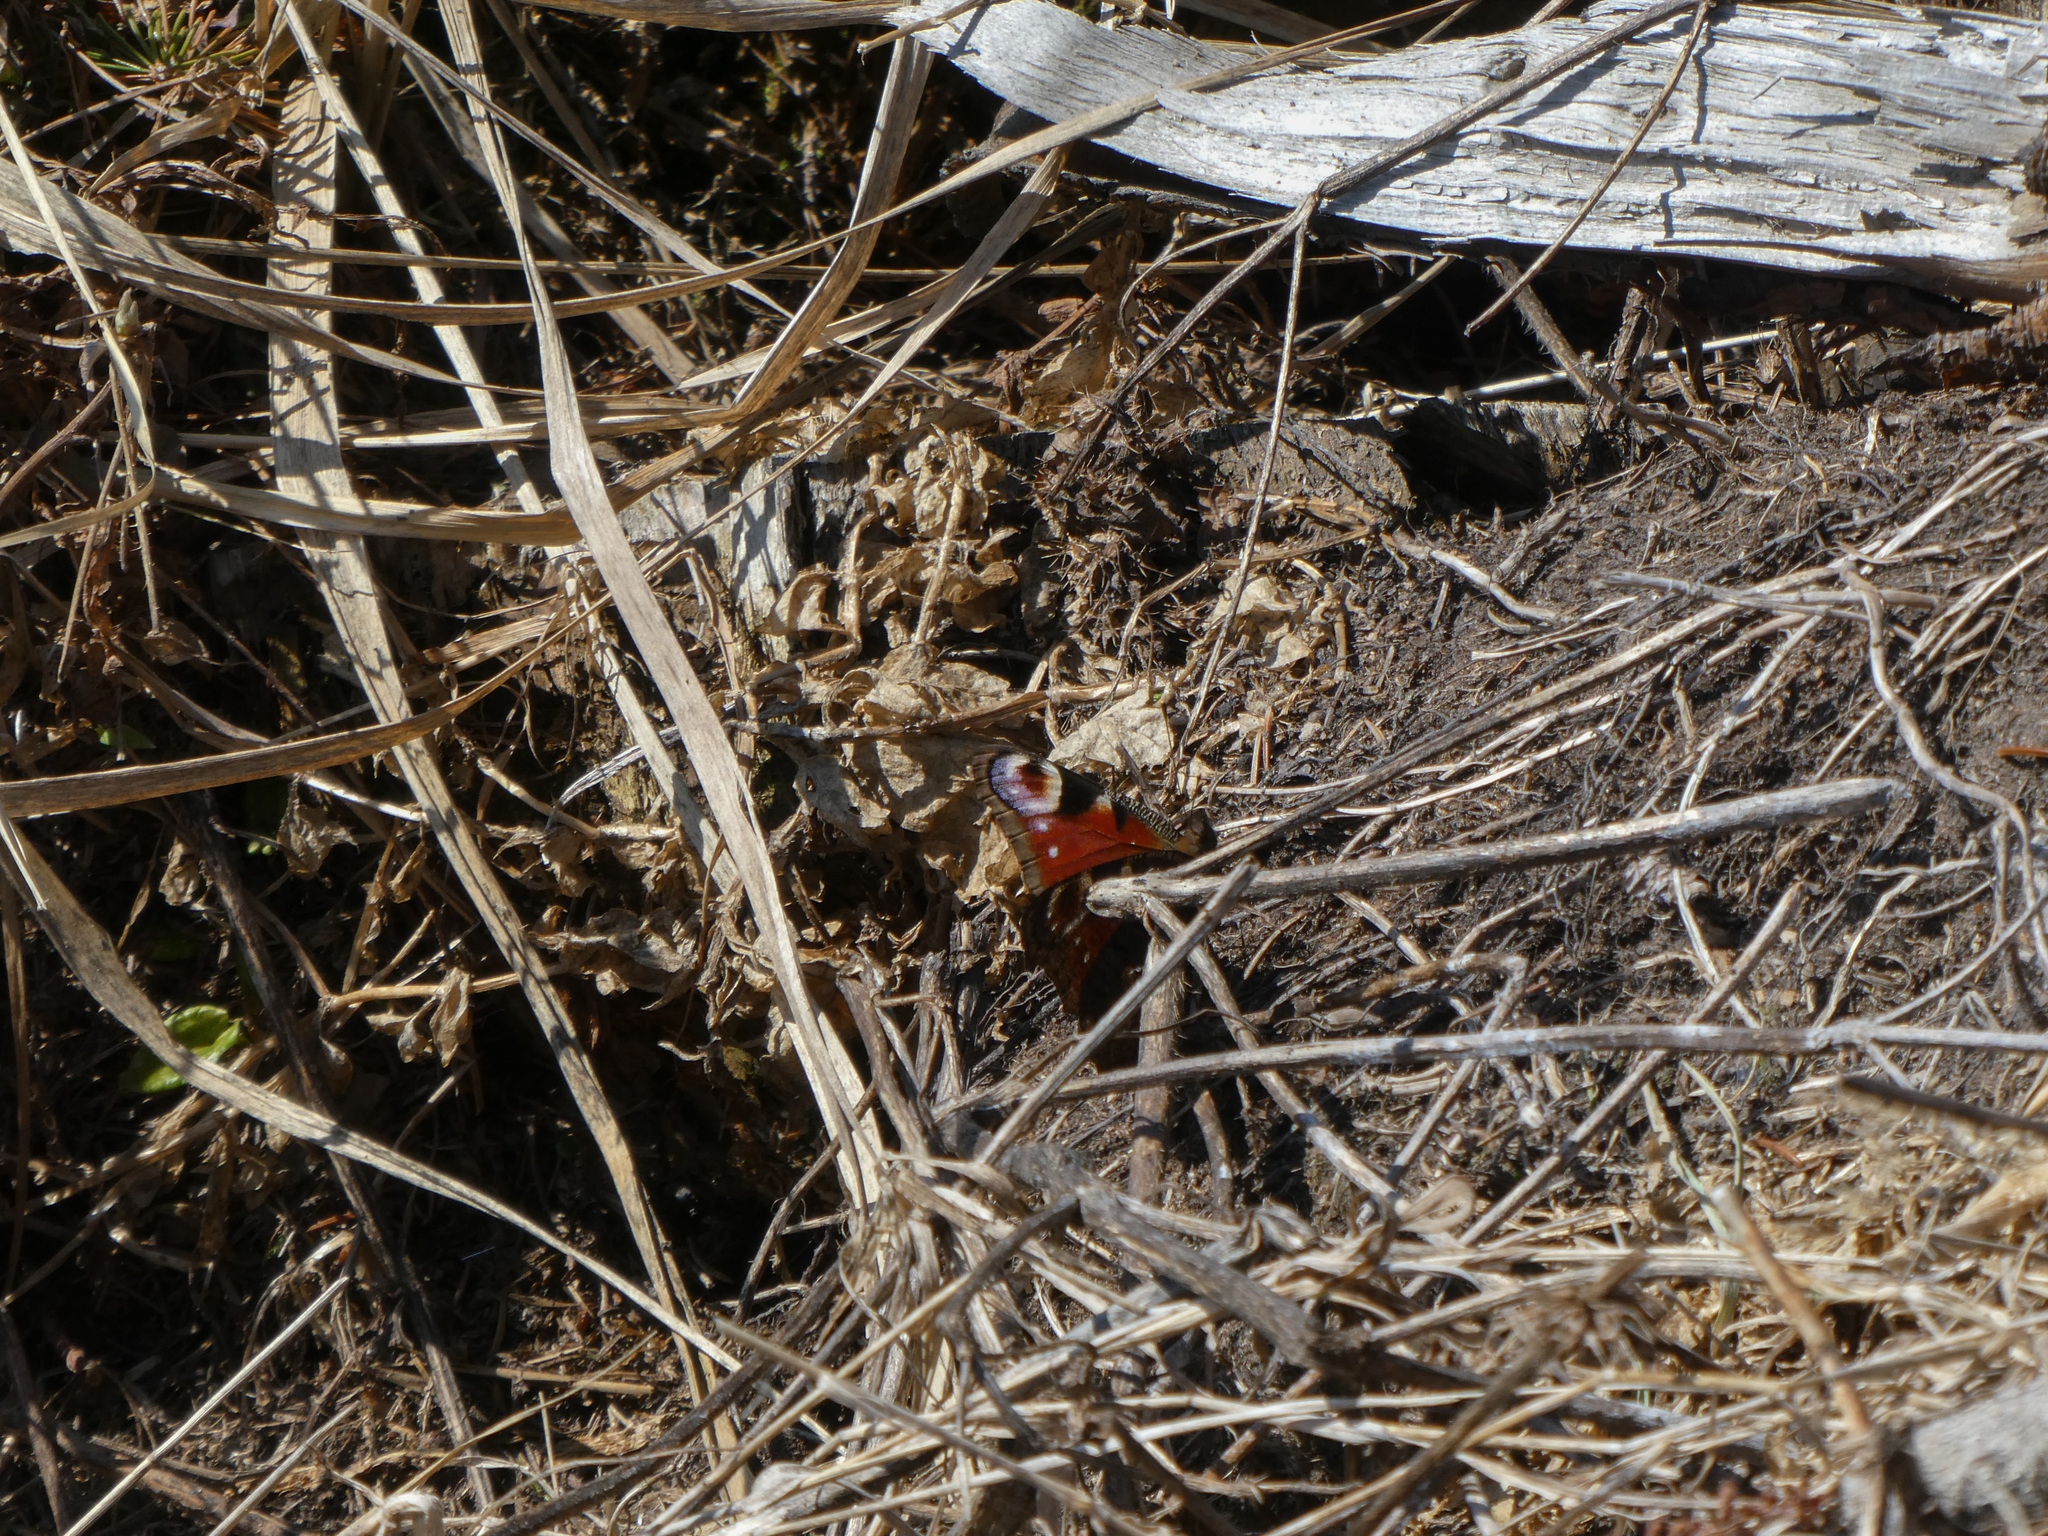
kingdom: Animalia
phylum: Arthropoda
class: Insecta
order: Lepidoptera
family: Nymphalidae
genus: Aglais
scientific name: Aglais io
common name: Peacock
